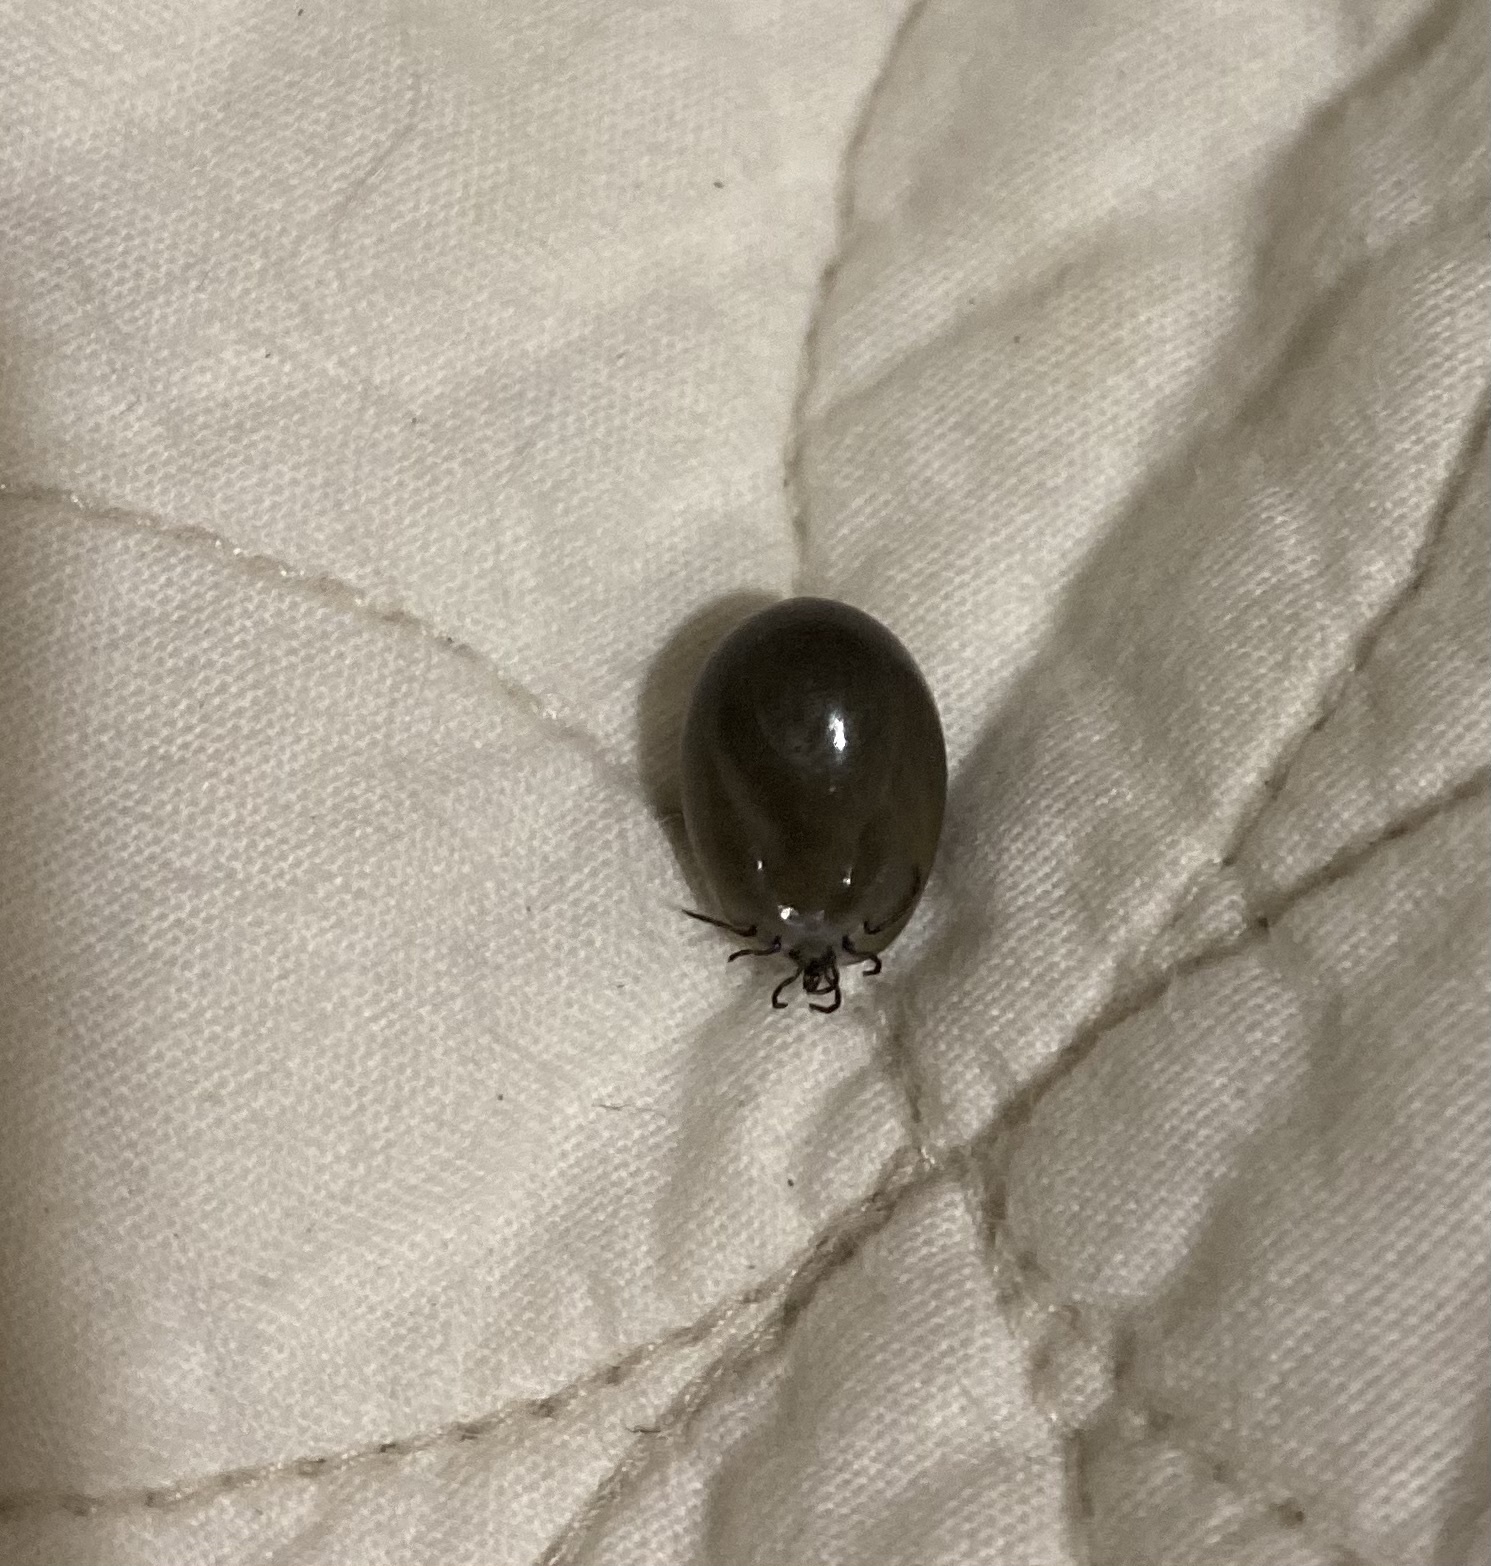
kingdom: Animalia
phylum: Arthropoda
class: Arachnida
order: Ixodida
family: Ixodidae
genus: Ixodes
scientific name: Ixodes scapularis
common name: Black legged tick
